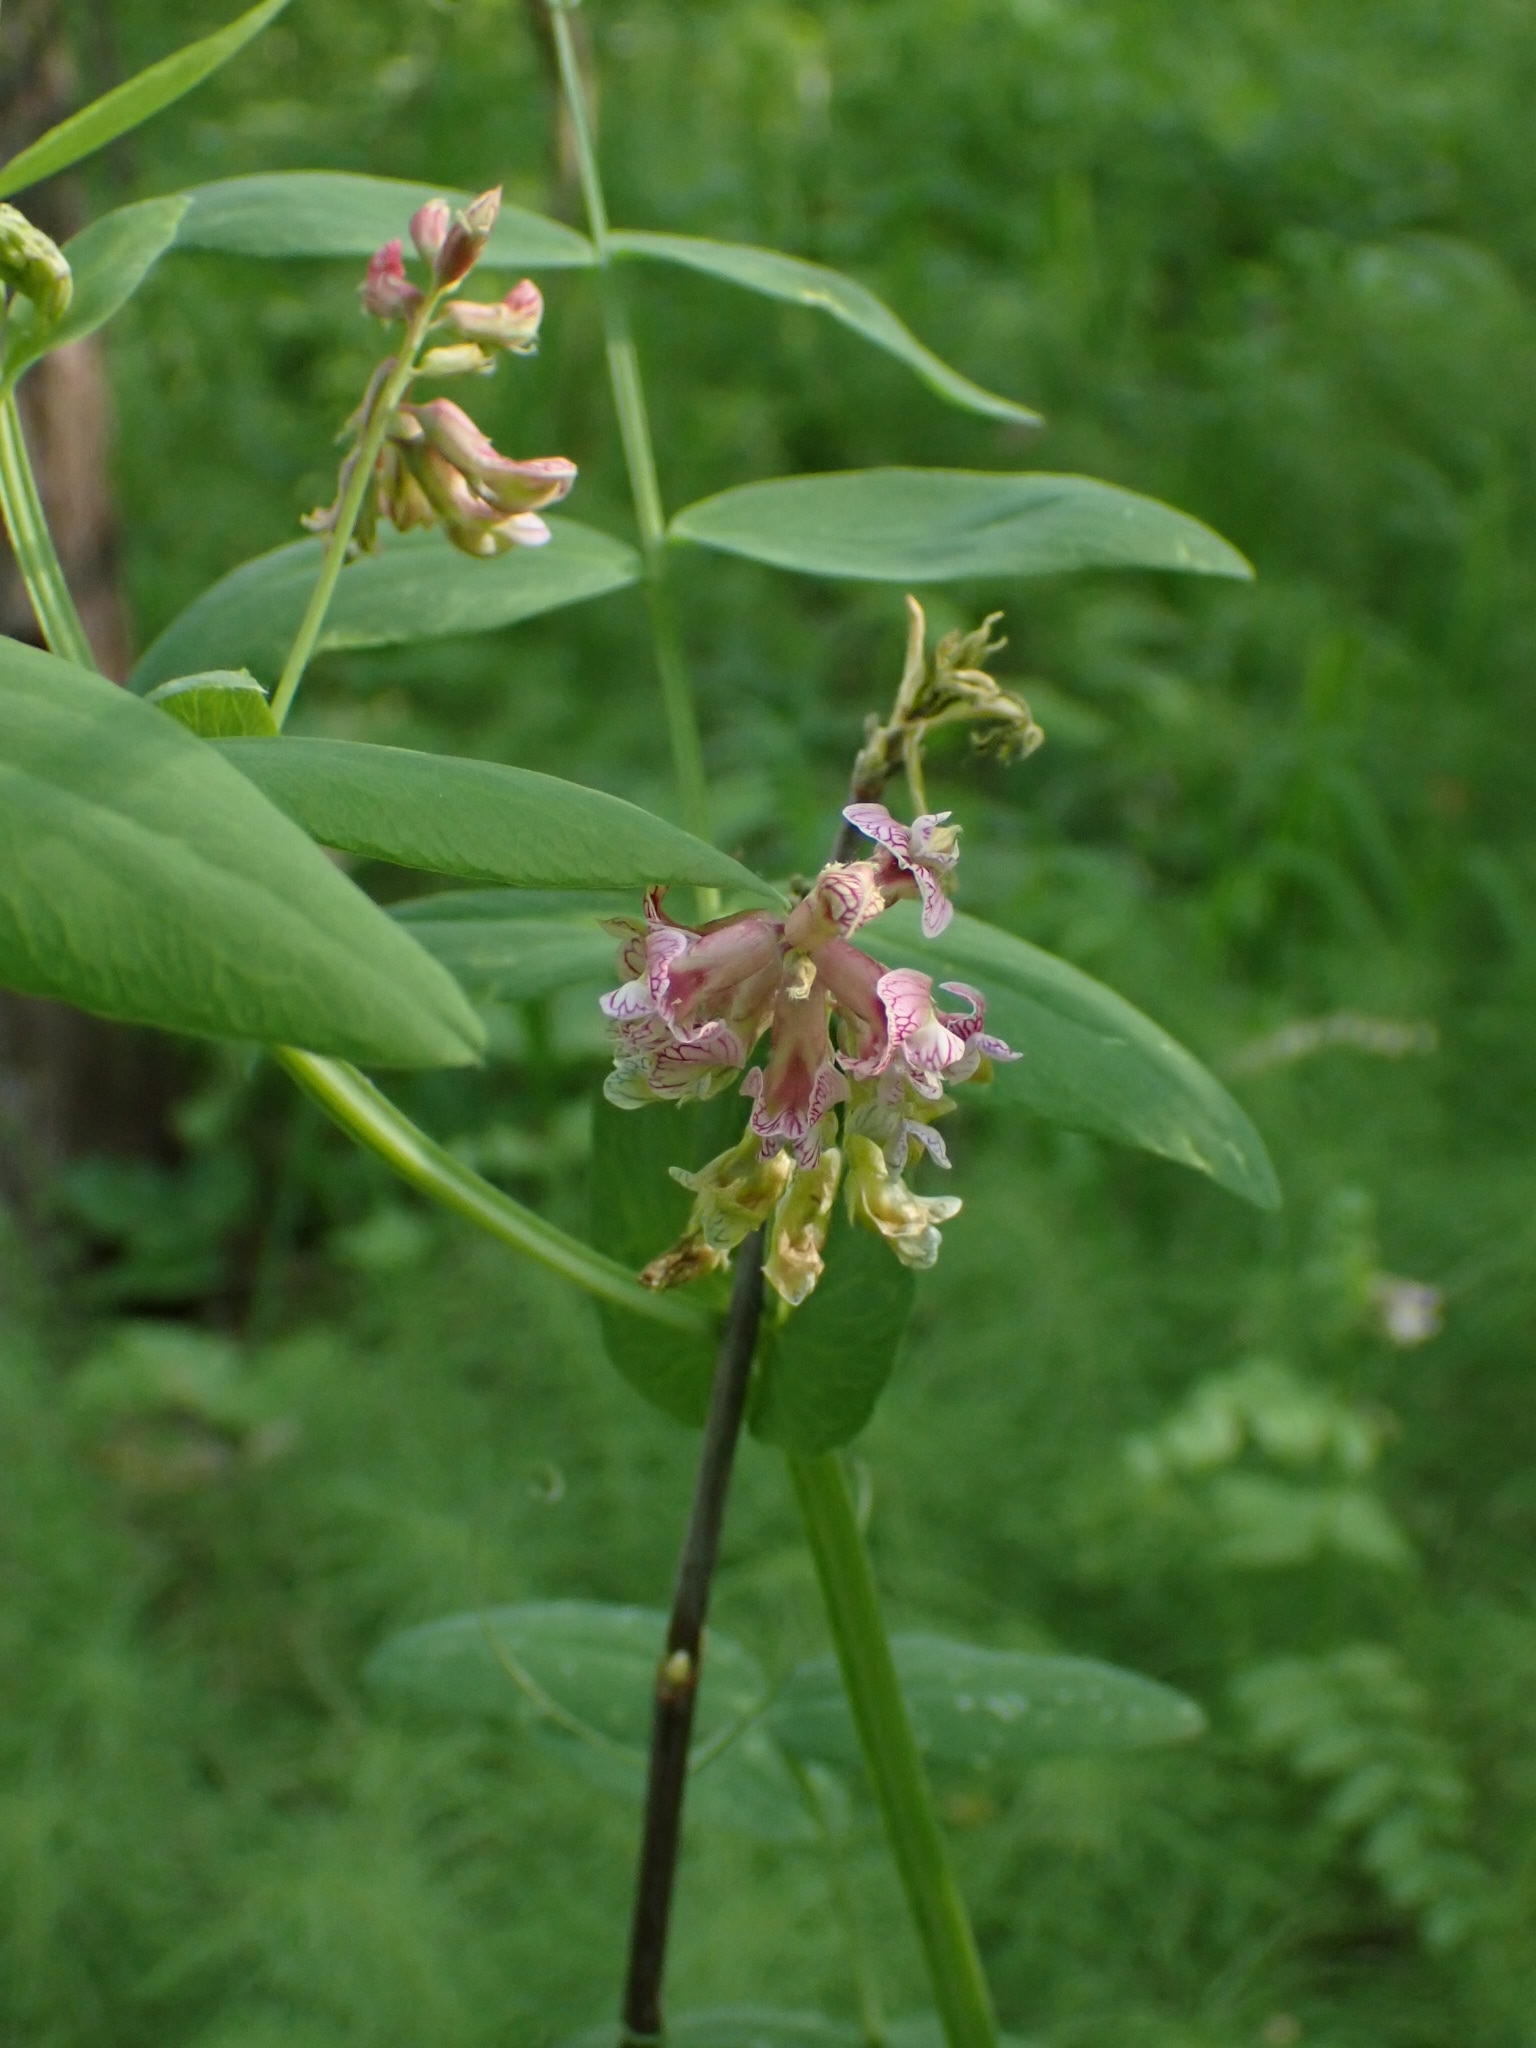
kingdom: Plantae
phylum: Tracheophyta
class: Magnoliopsida
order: Fabales
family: Fabaceae
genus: Lathyrus
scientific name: Lathyrus pisiformis
